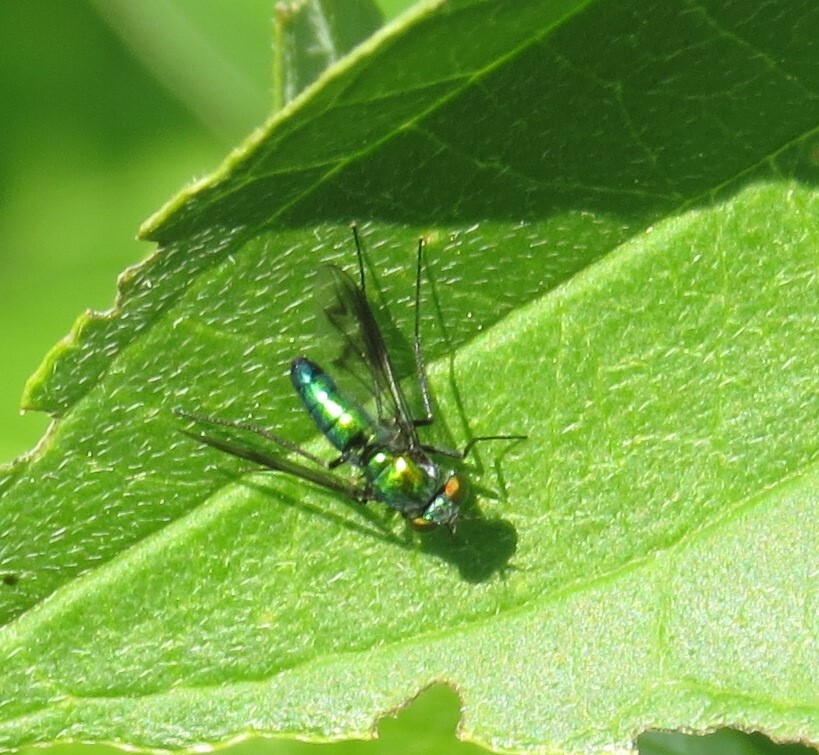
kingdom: Animalia
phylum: Arthropoda
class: Insecta
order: Diptera
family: Dolichopodidae
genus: Condylostylus
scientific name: Condylostylus patibulatus
